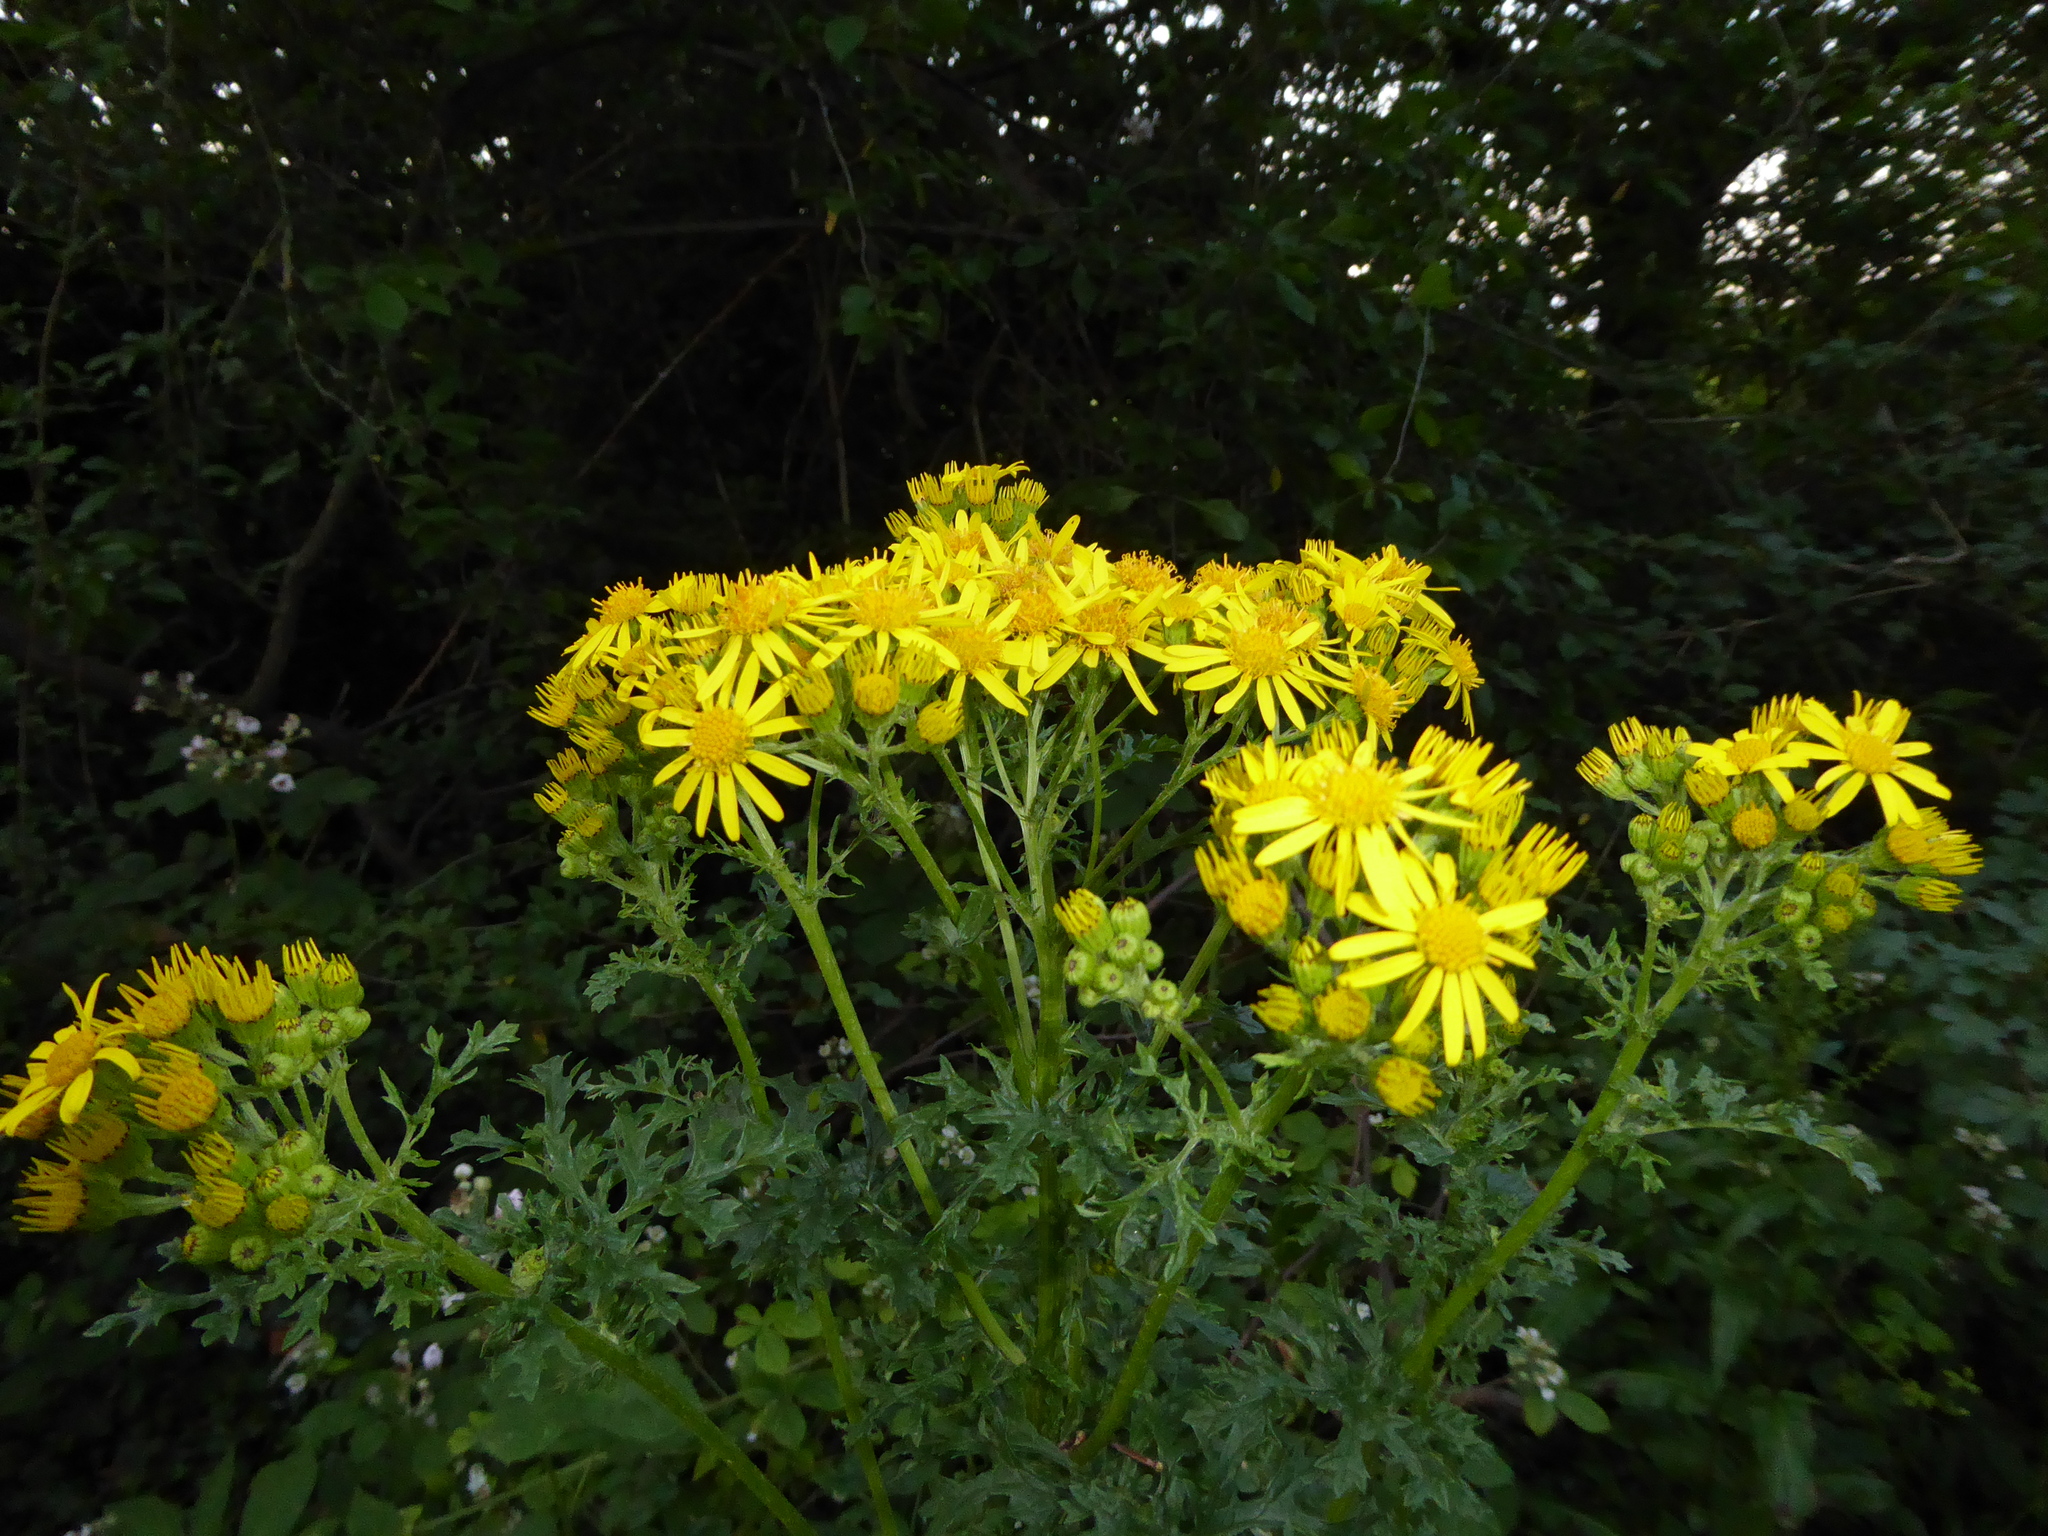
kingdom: Plantae
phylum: Tracheophyta
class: Magnoliopsida
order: Asterales
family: Asteraceae
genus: Jacobaea
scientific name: Jacobaea vulgaris
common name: Stinking willie
